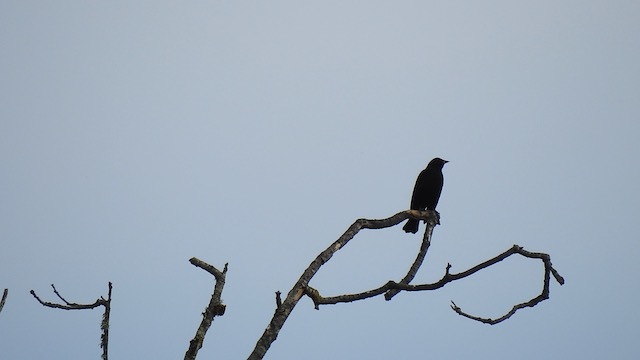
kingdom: Animalia
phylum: Chordata
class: Aves
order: Passeriformes
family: Icteridae
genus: Euphagus
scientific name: Euphagus cyanocephalus
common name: Brewer's blackbird
